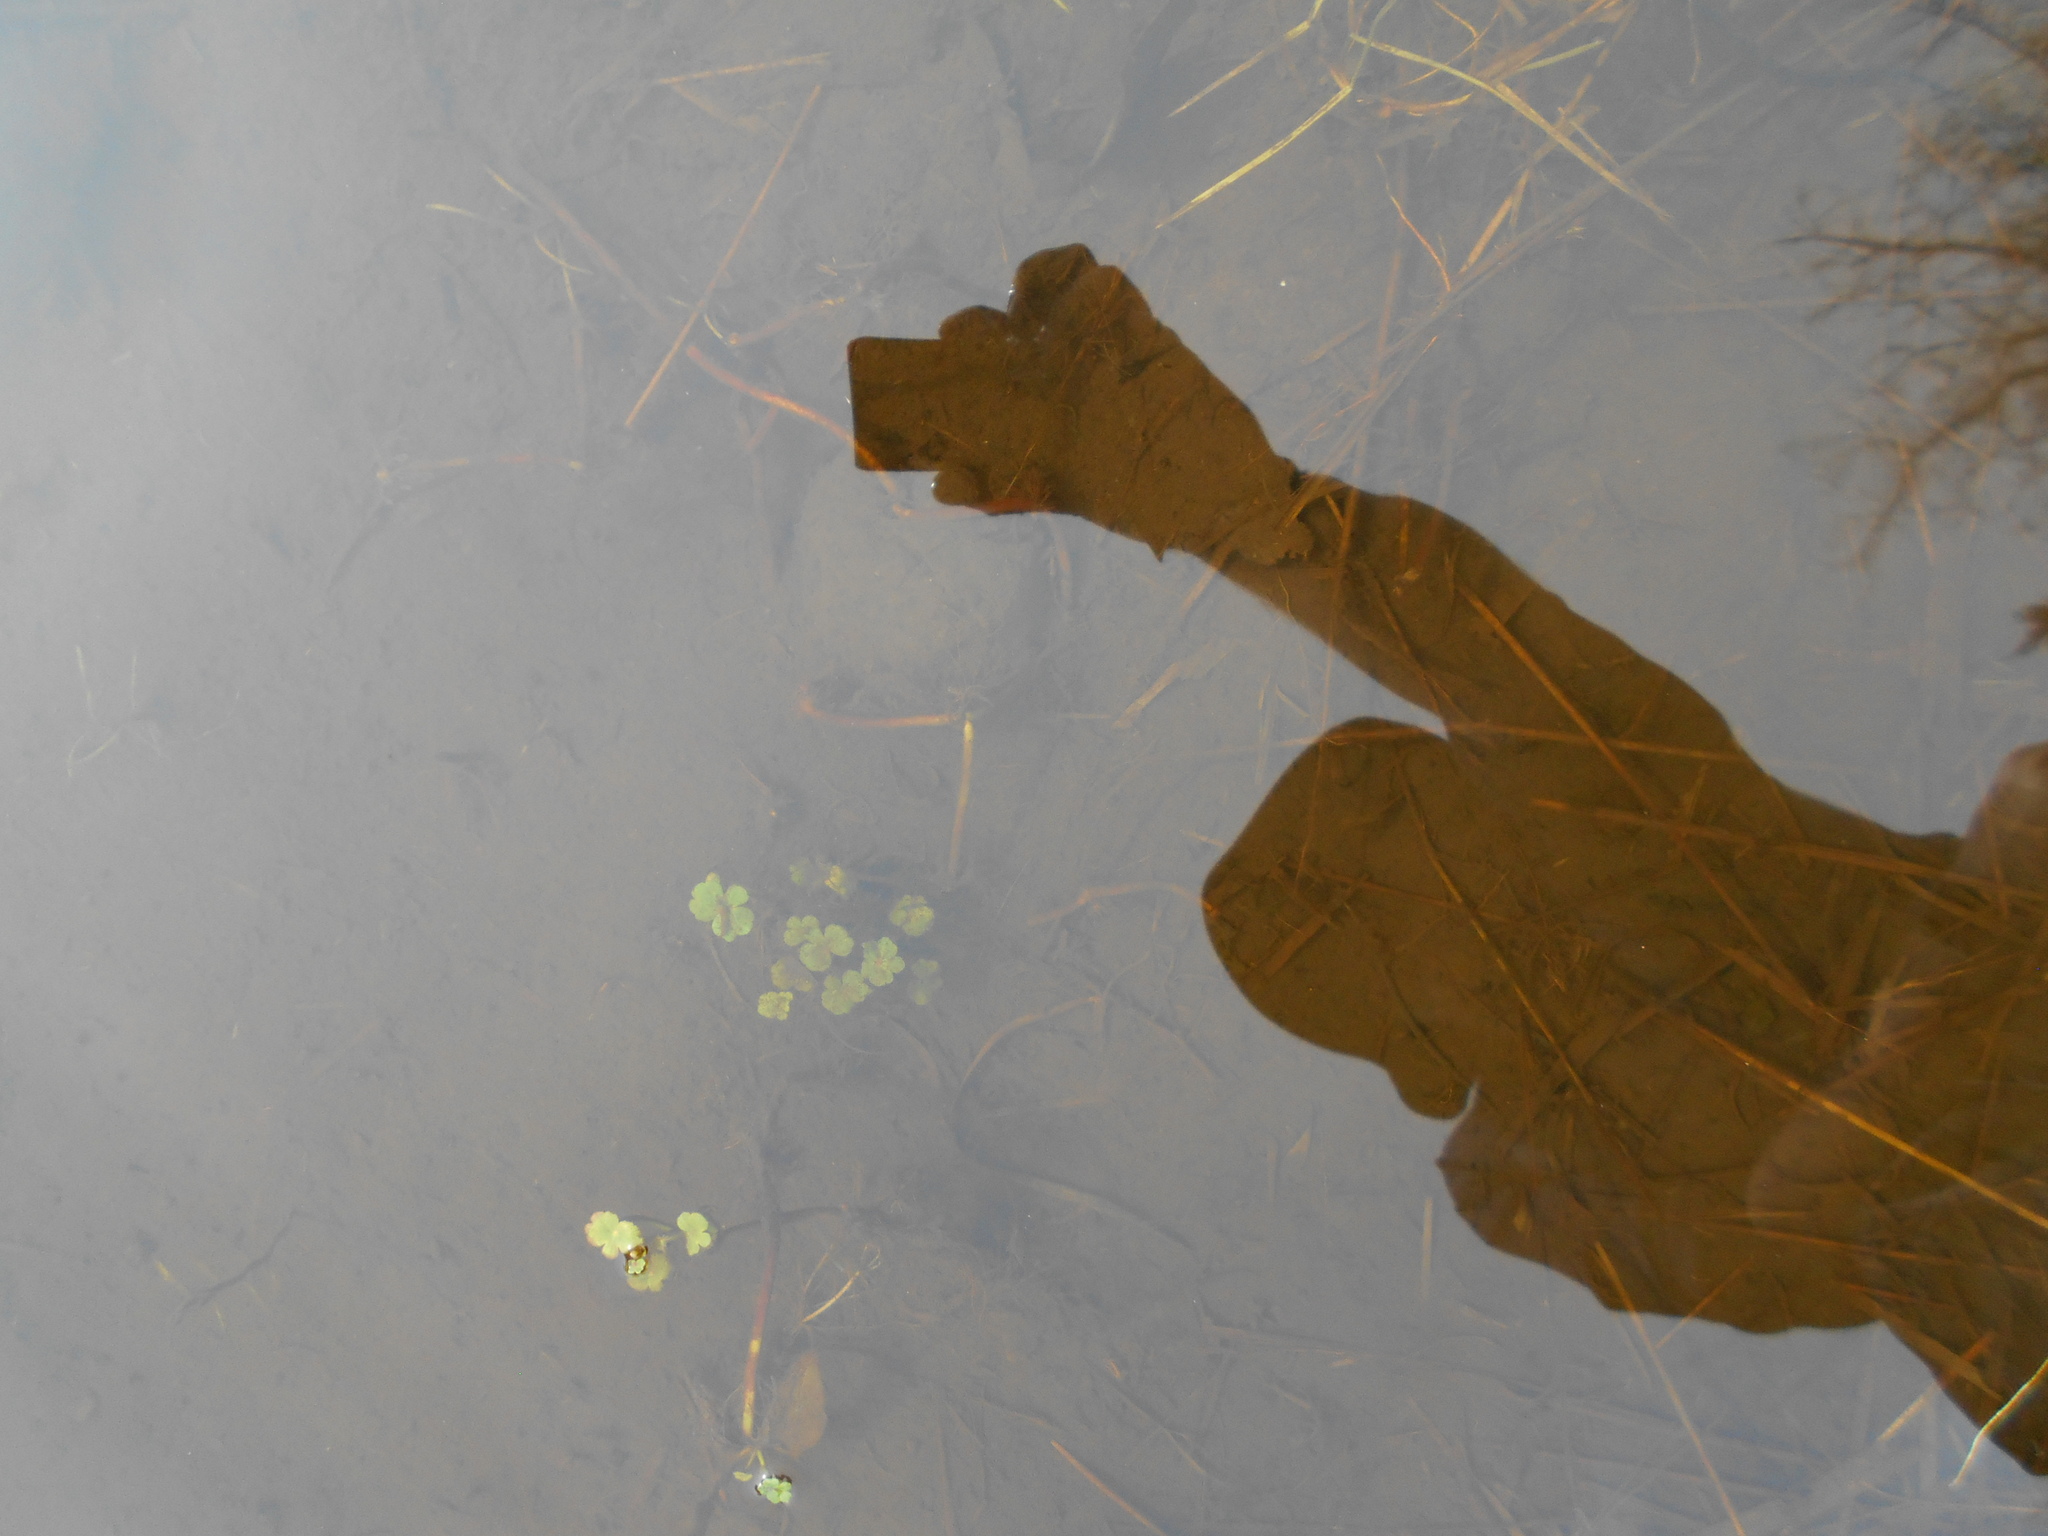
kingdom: Animalia
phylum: Chordata
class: Amphibia
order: Caudata
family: Ambystomatidae
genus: Ambystoma
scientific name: Ambystoma gracile
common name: Northwestern salamander
